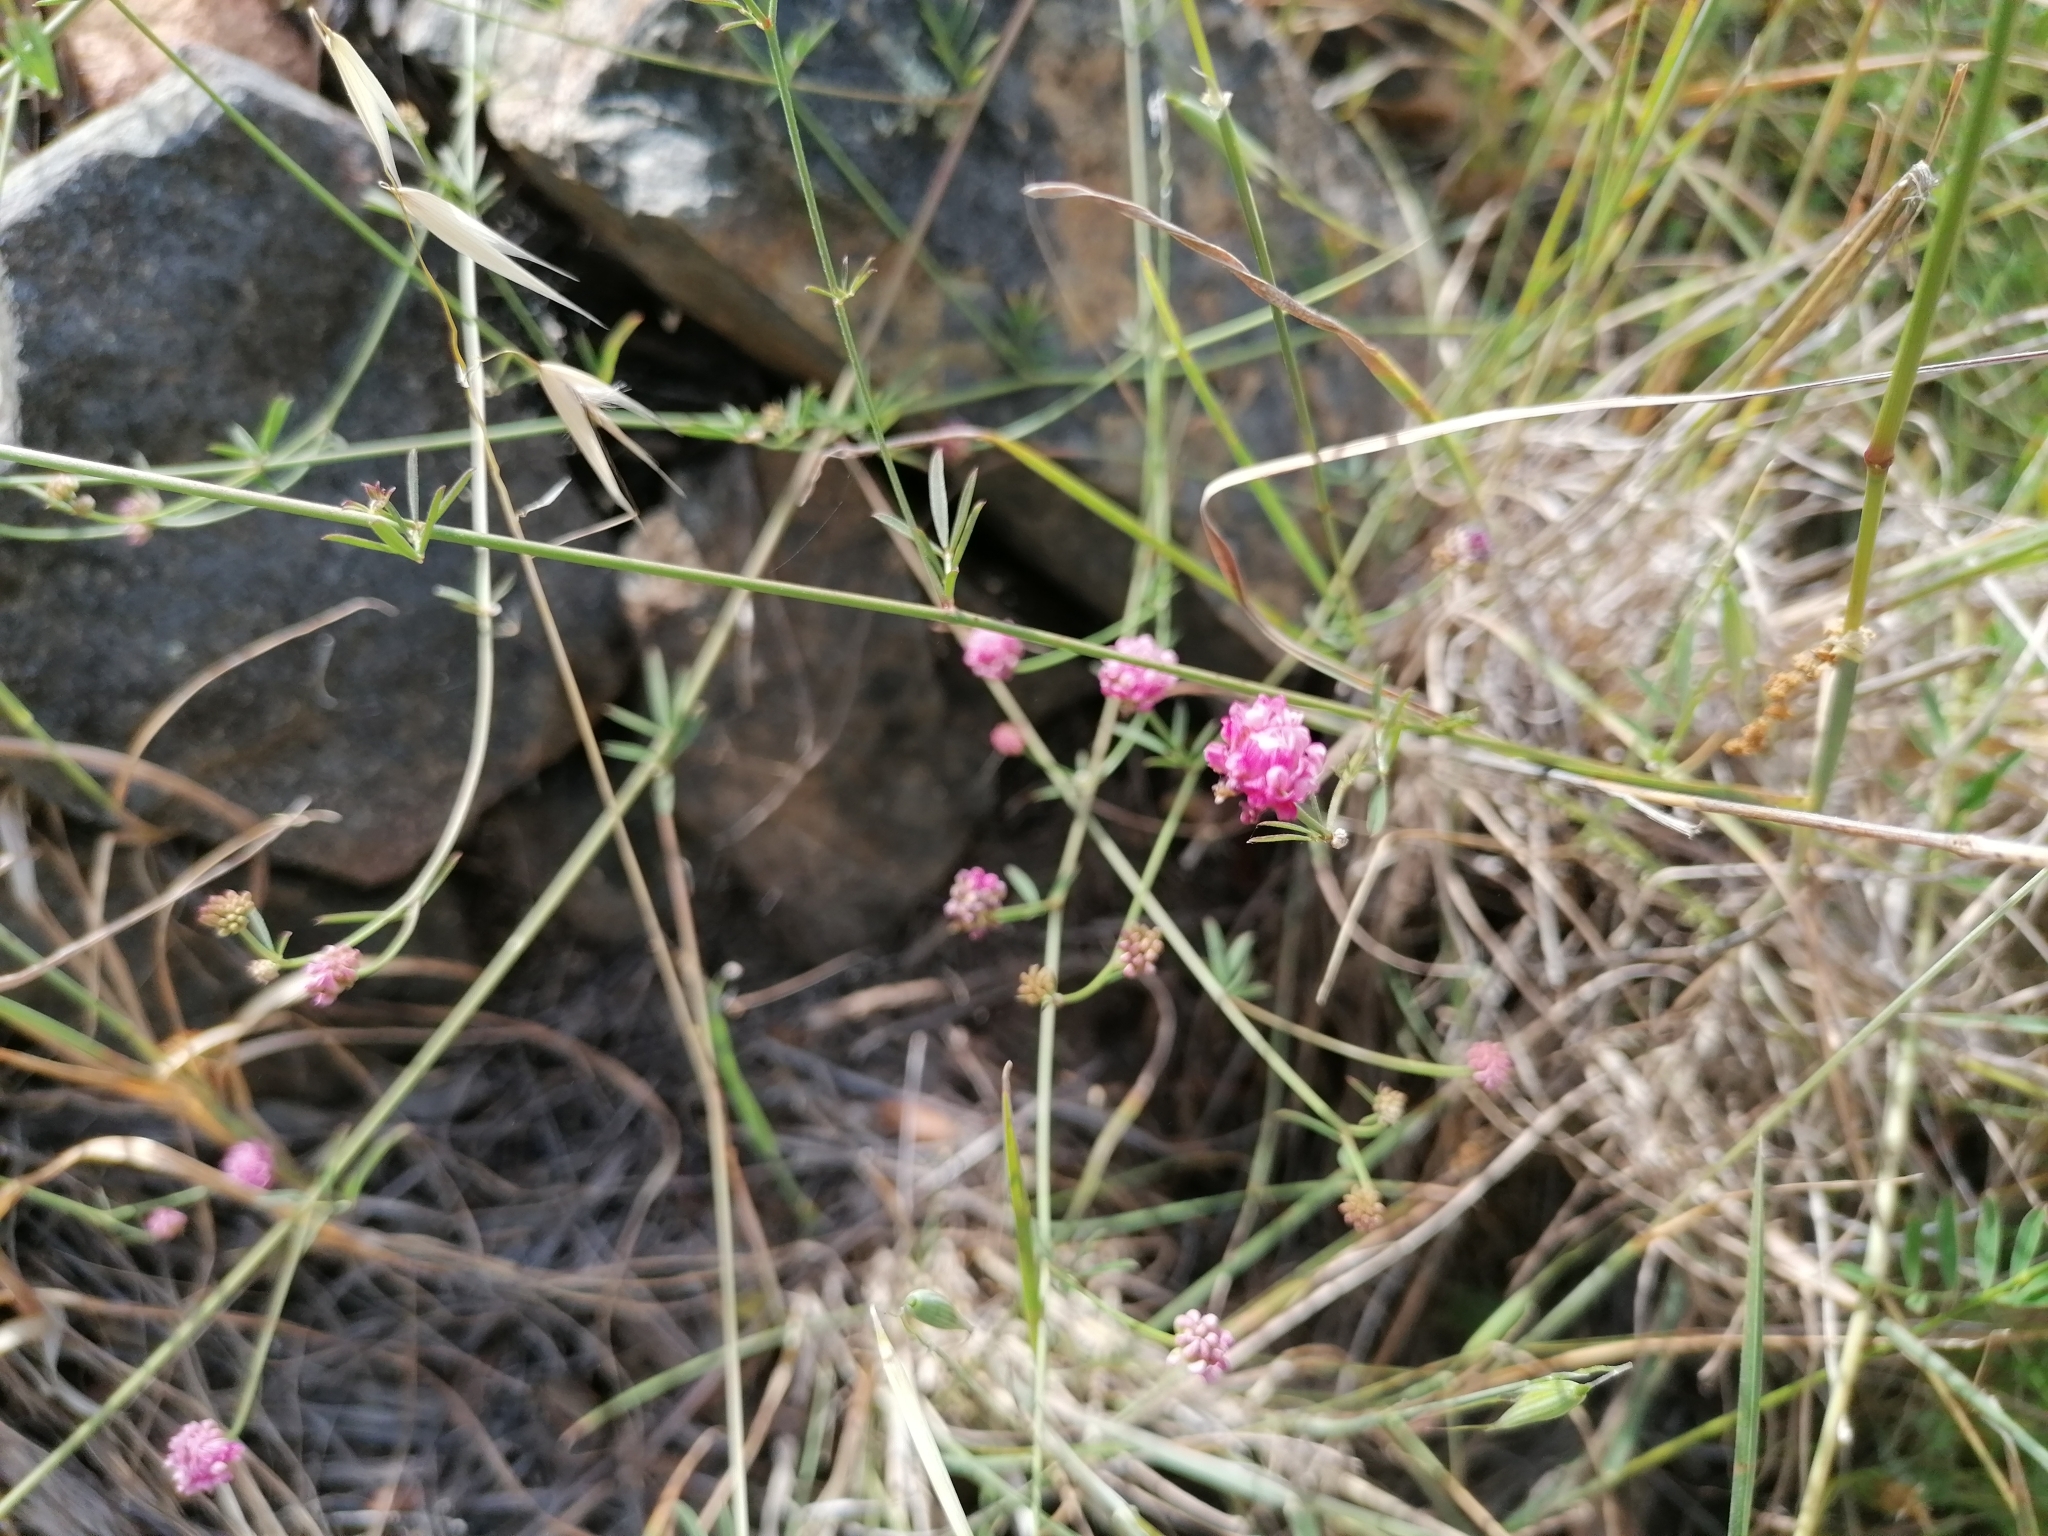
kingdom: Plantae
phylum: Tracheophyta
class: Magnoliopsida
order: Fabales
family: Fabaceae
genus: Dorycnopsis
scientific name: Dorycnopsis gerardi
